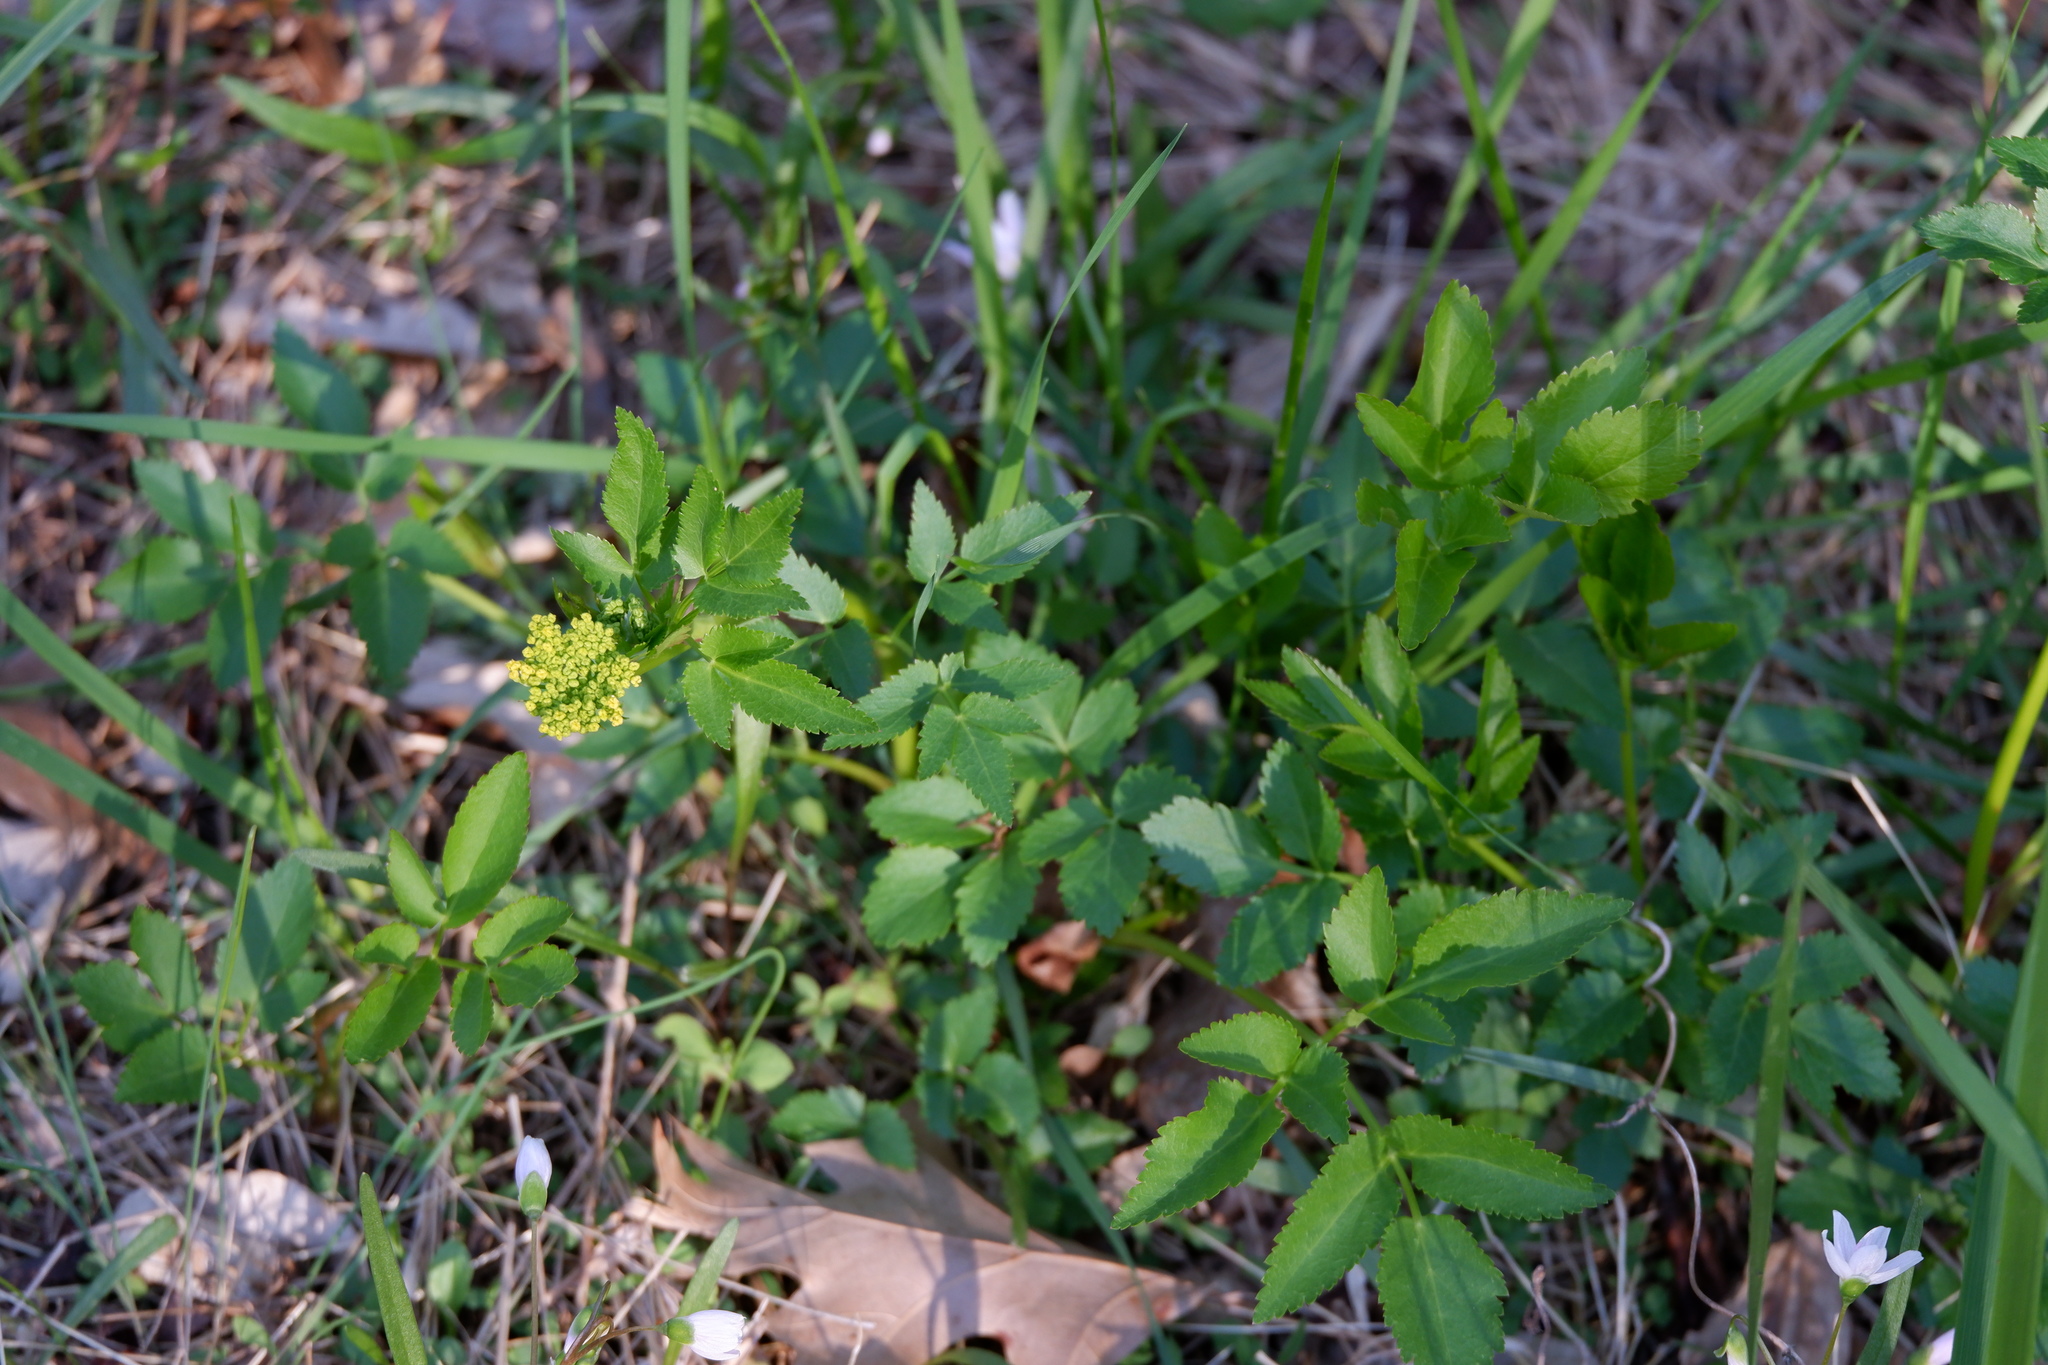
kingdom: Plantae
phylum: Tracheophyta
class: Magnoliopsida
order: Apiales
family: Apiaceae
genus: Zizia
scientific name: Zizia aurea
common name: Golden alexanders
